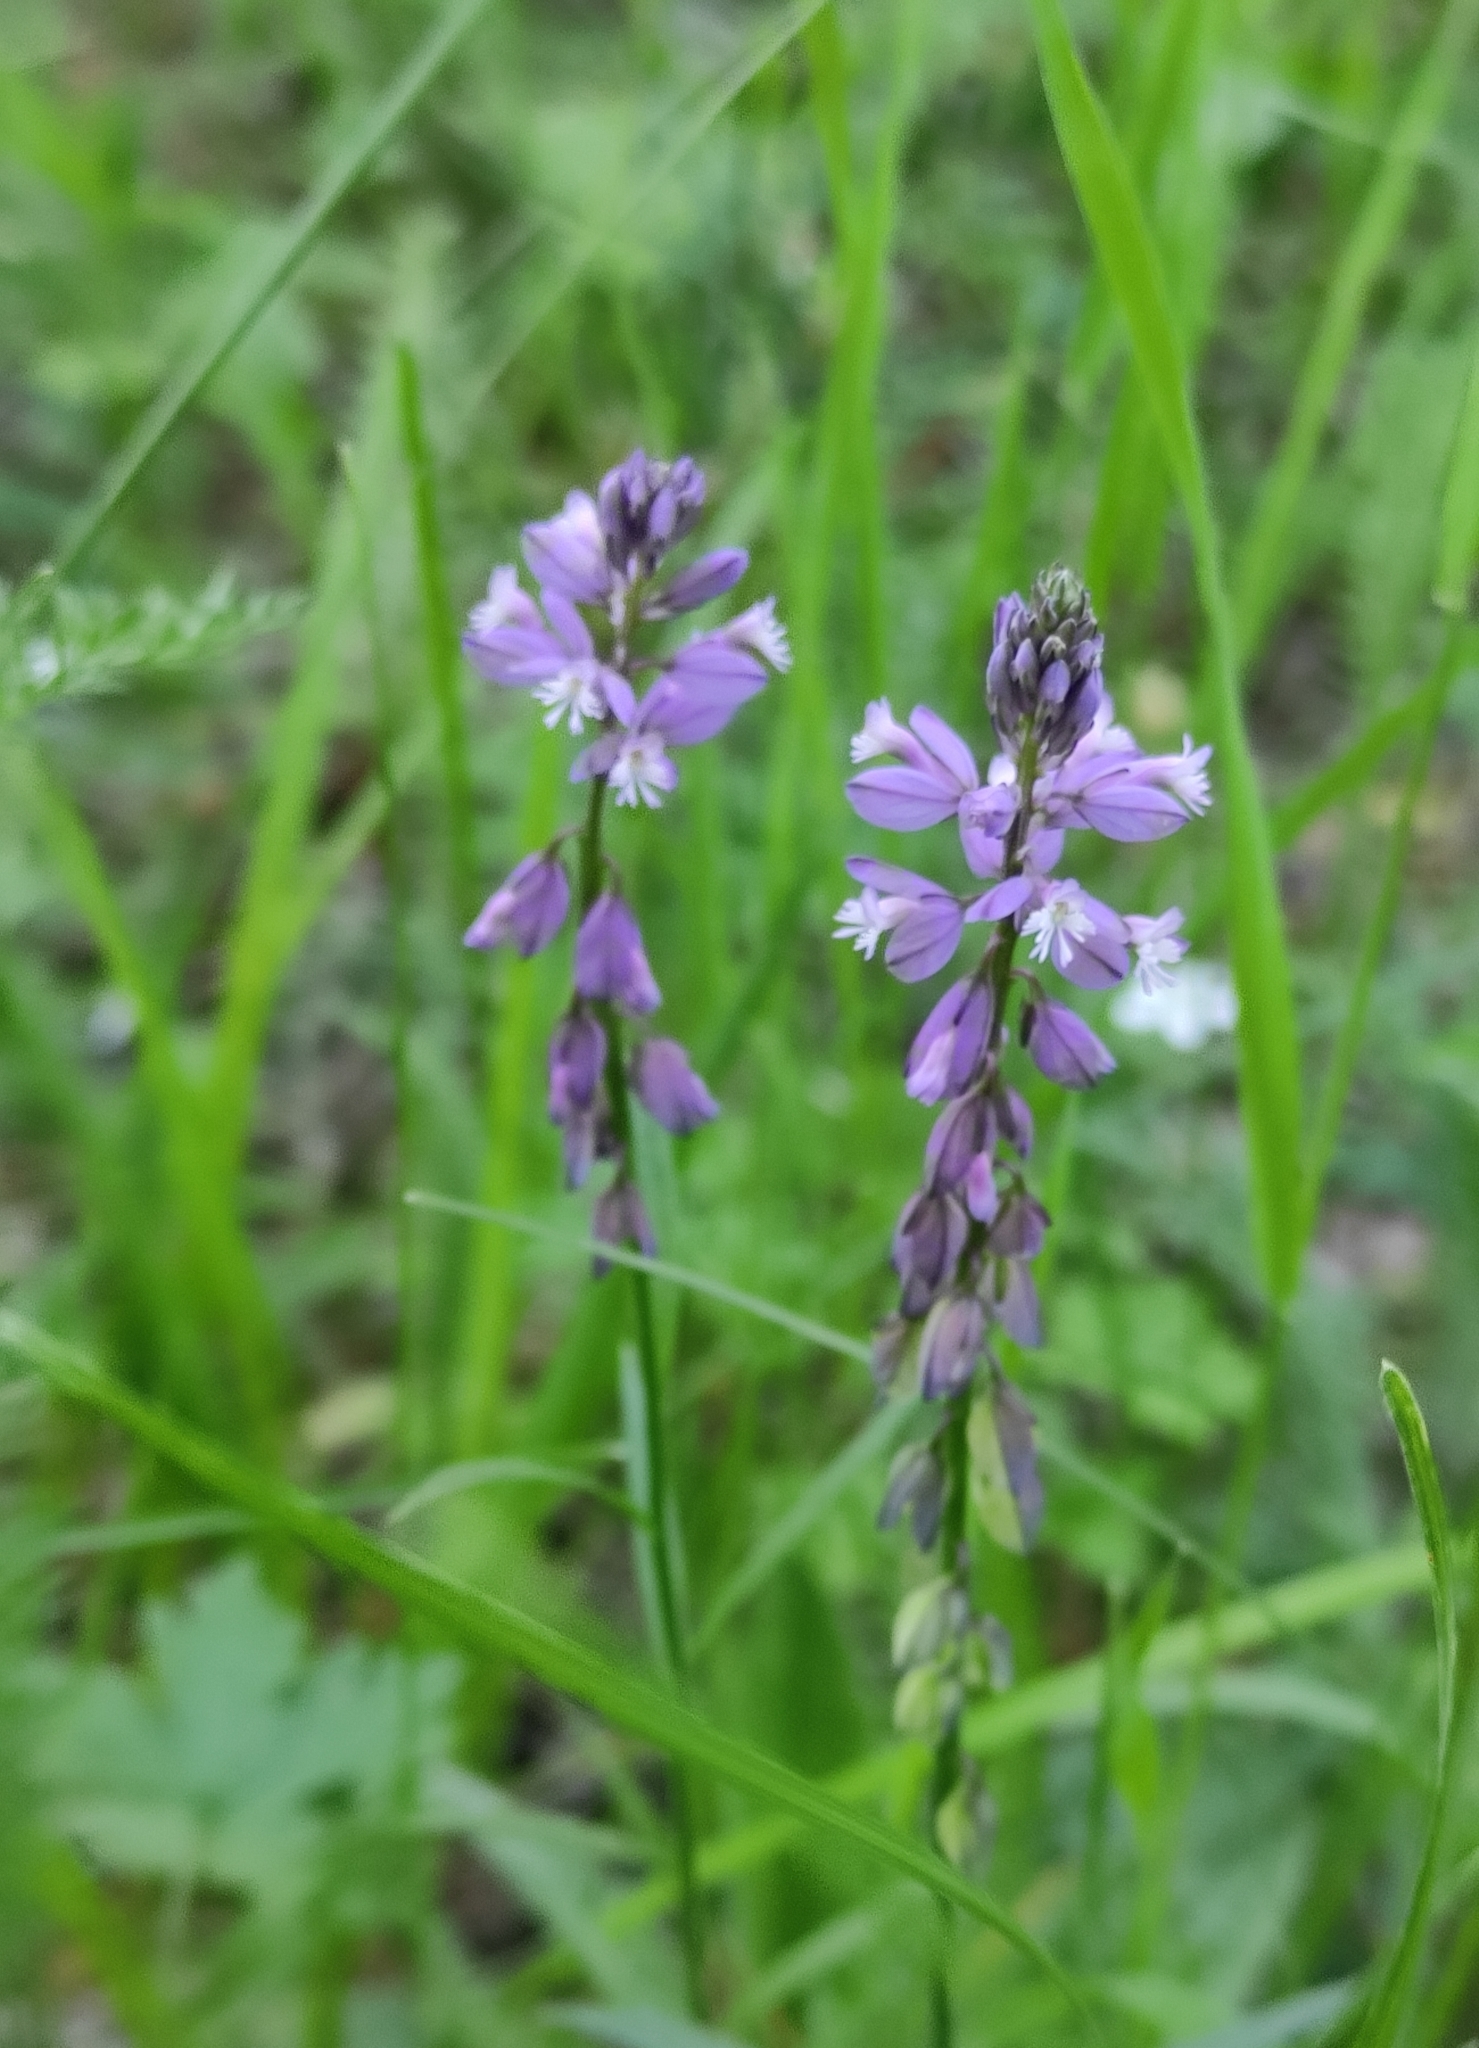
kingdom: Plantae
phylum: Tracheophyta
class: Magnoliopsida
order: Fabales
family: Polygalaceae
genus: Polygala
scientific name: Polygala comosa
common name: Tufted milkwort
